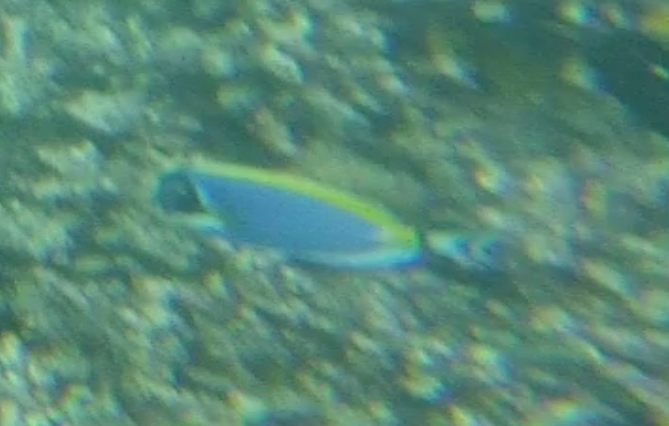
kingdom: Animalia
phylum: Chordata
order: Perciformes
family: Acanthuridae
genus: Acanthurus
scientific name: Acanthurus leucosternon
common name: Blue surgeonfish
